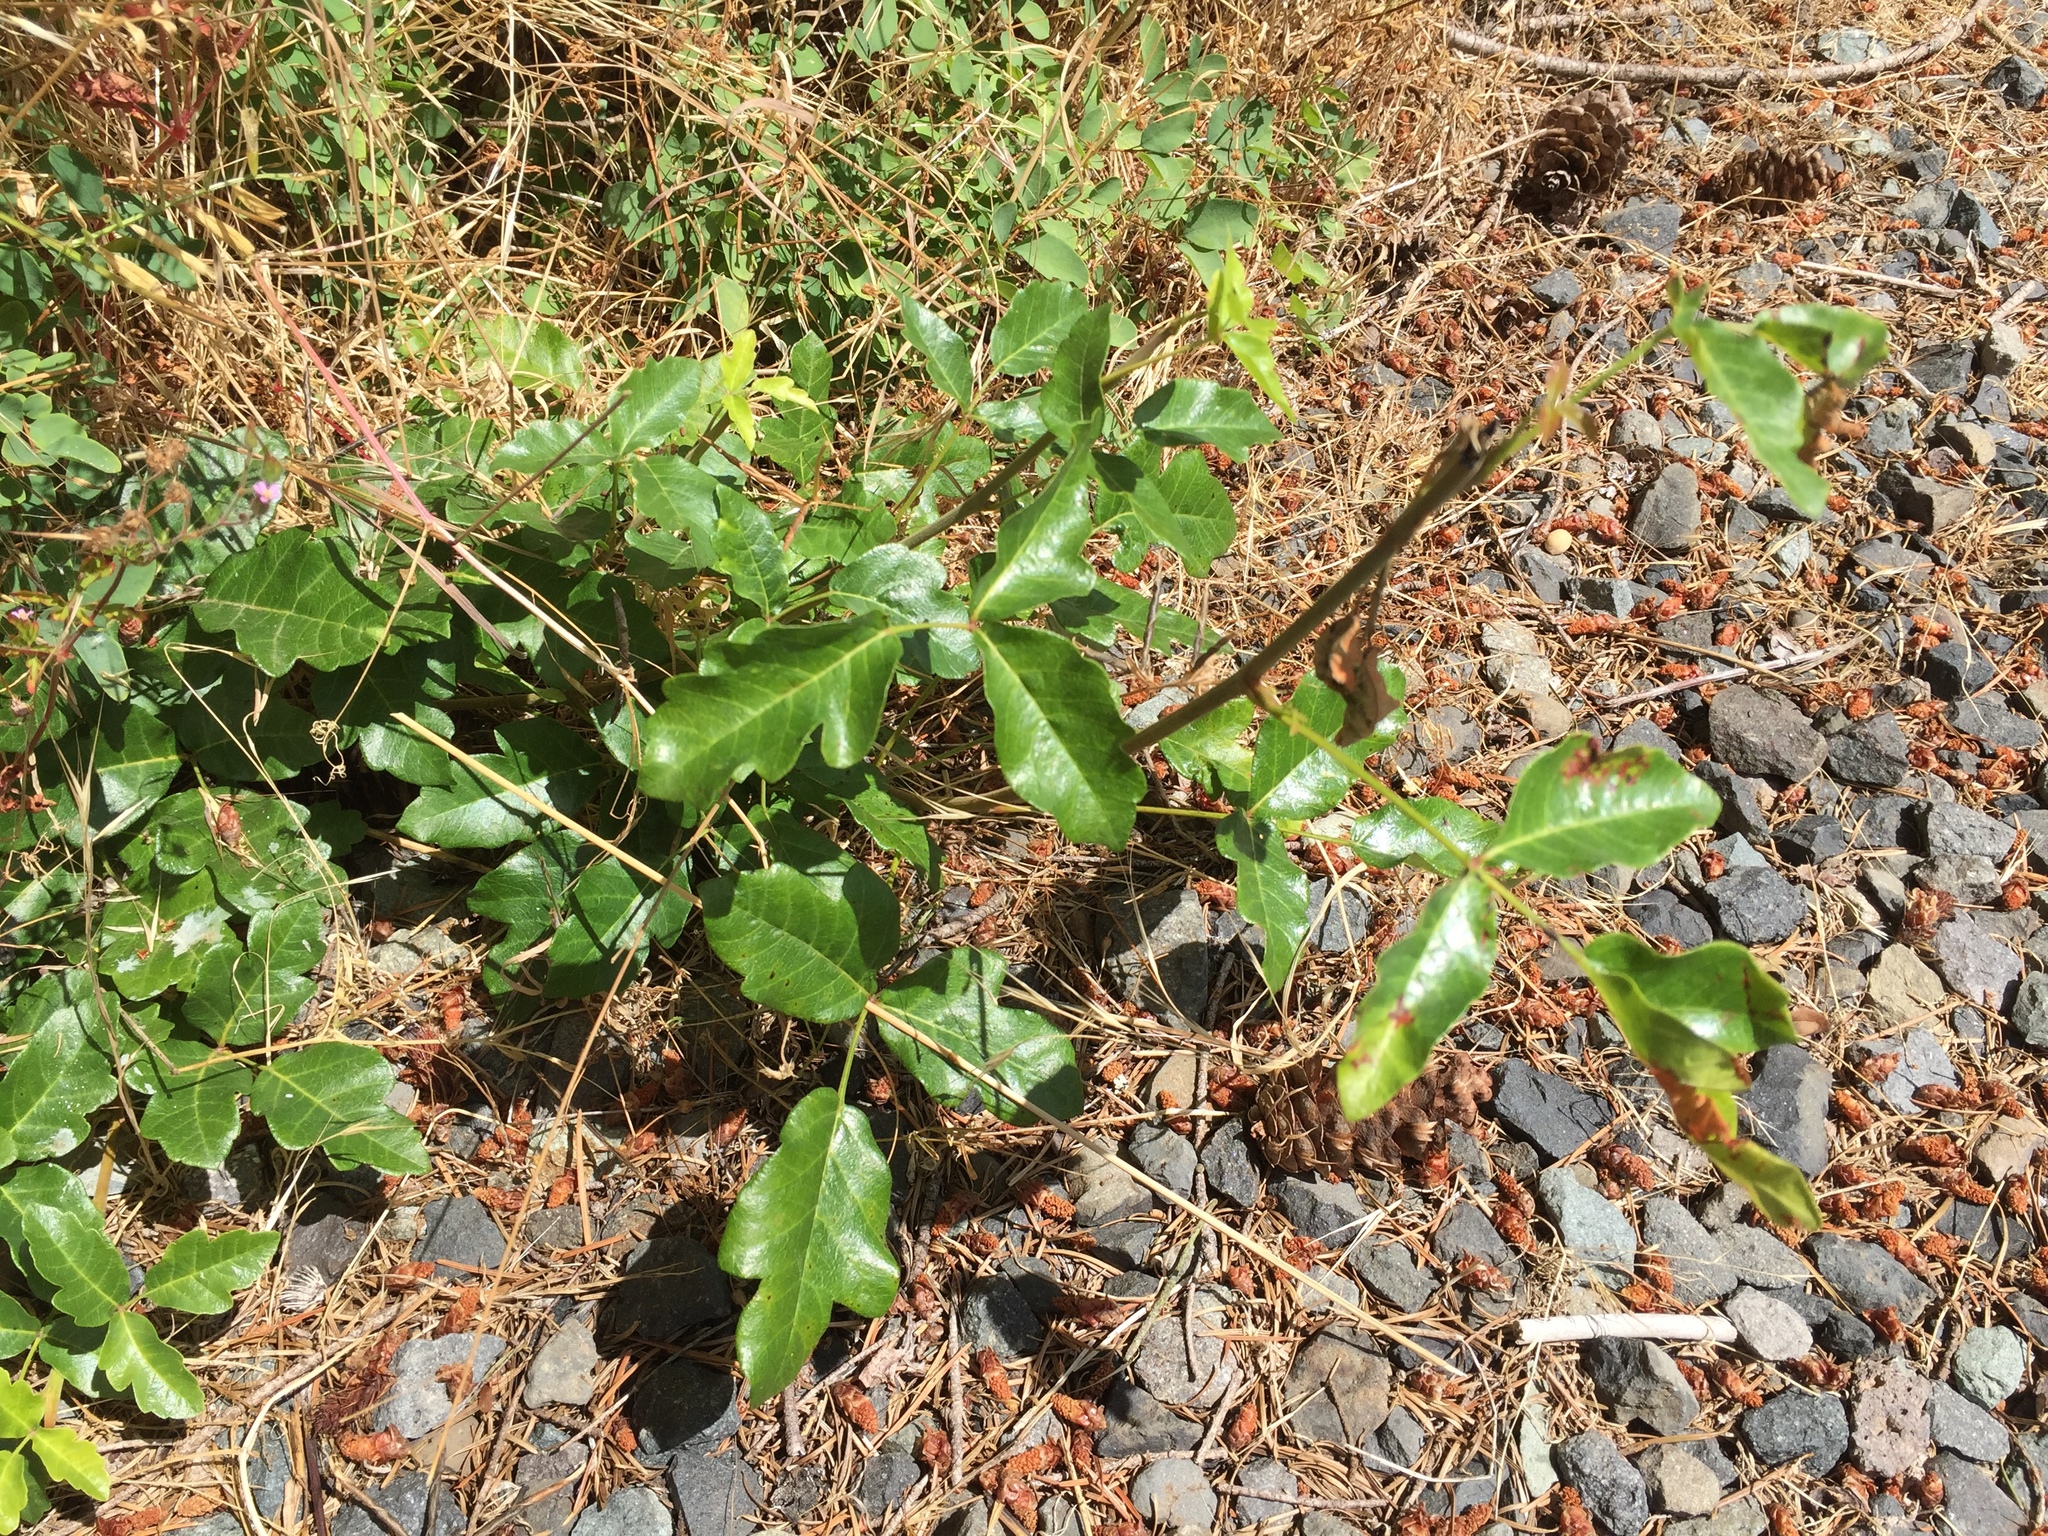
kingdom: Plantae
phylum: Tracheophyta
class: Magnoliopsida
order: Sapindales
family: Anacardiaceae
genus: Toxicodendron
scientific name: Toxicodendron diversilobum
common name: Pacific poison-oak
